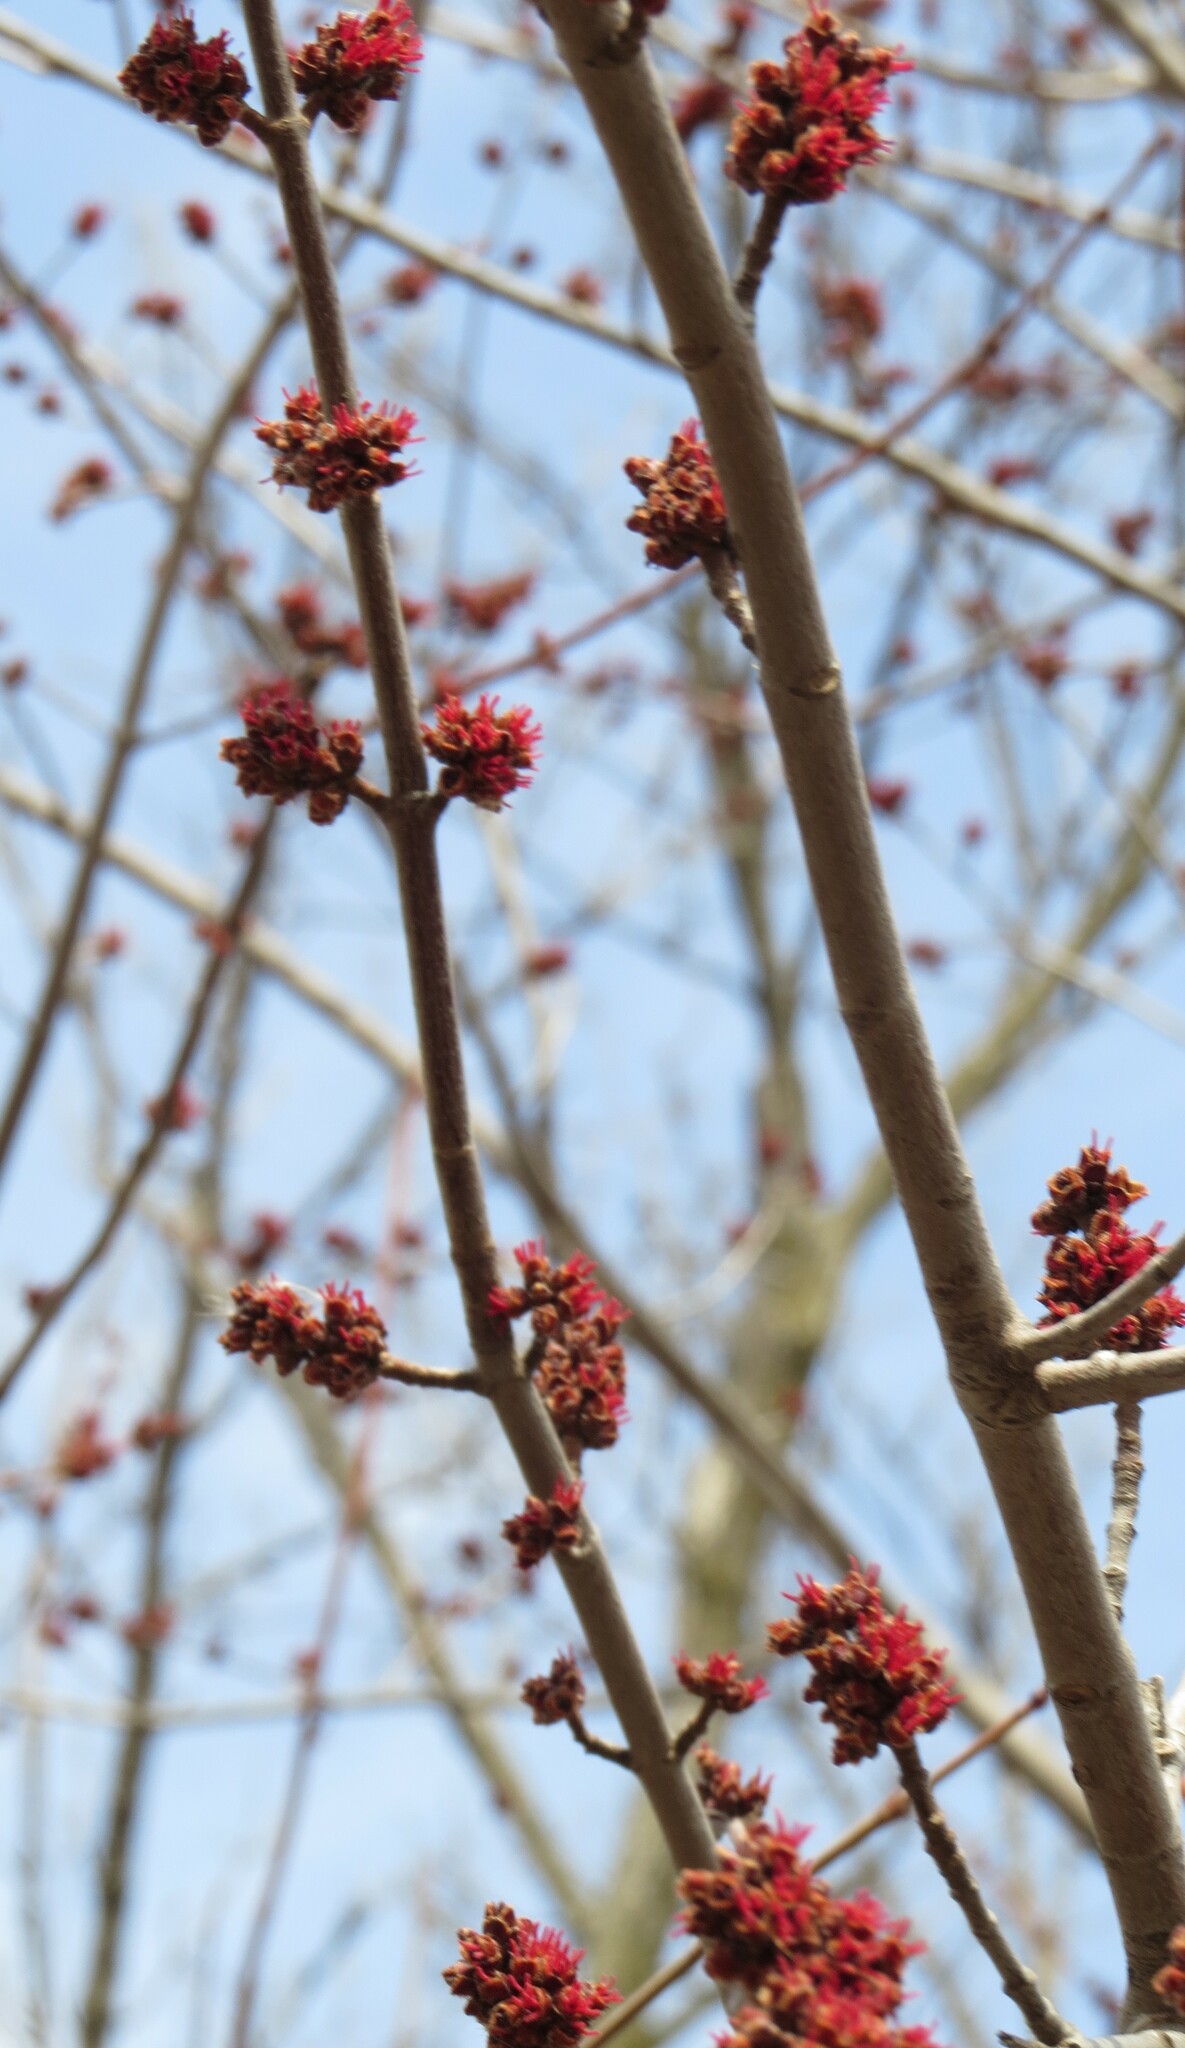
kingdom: Plantae
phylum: Tracheophyta
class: Magnoliopsida
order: Sapindales
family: Sapindaceae
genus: Acer
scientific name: Acer saccharinum
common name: Silver maple
